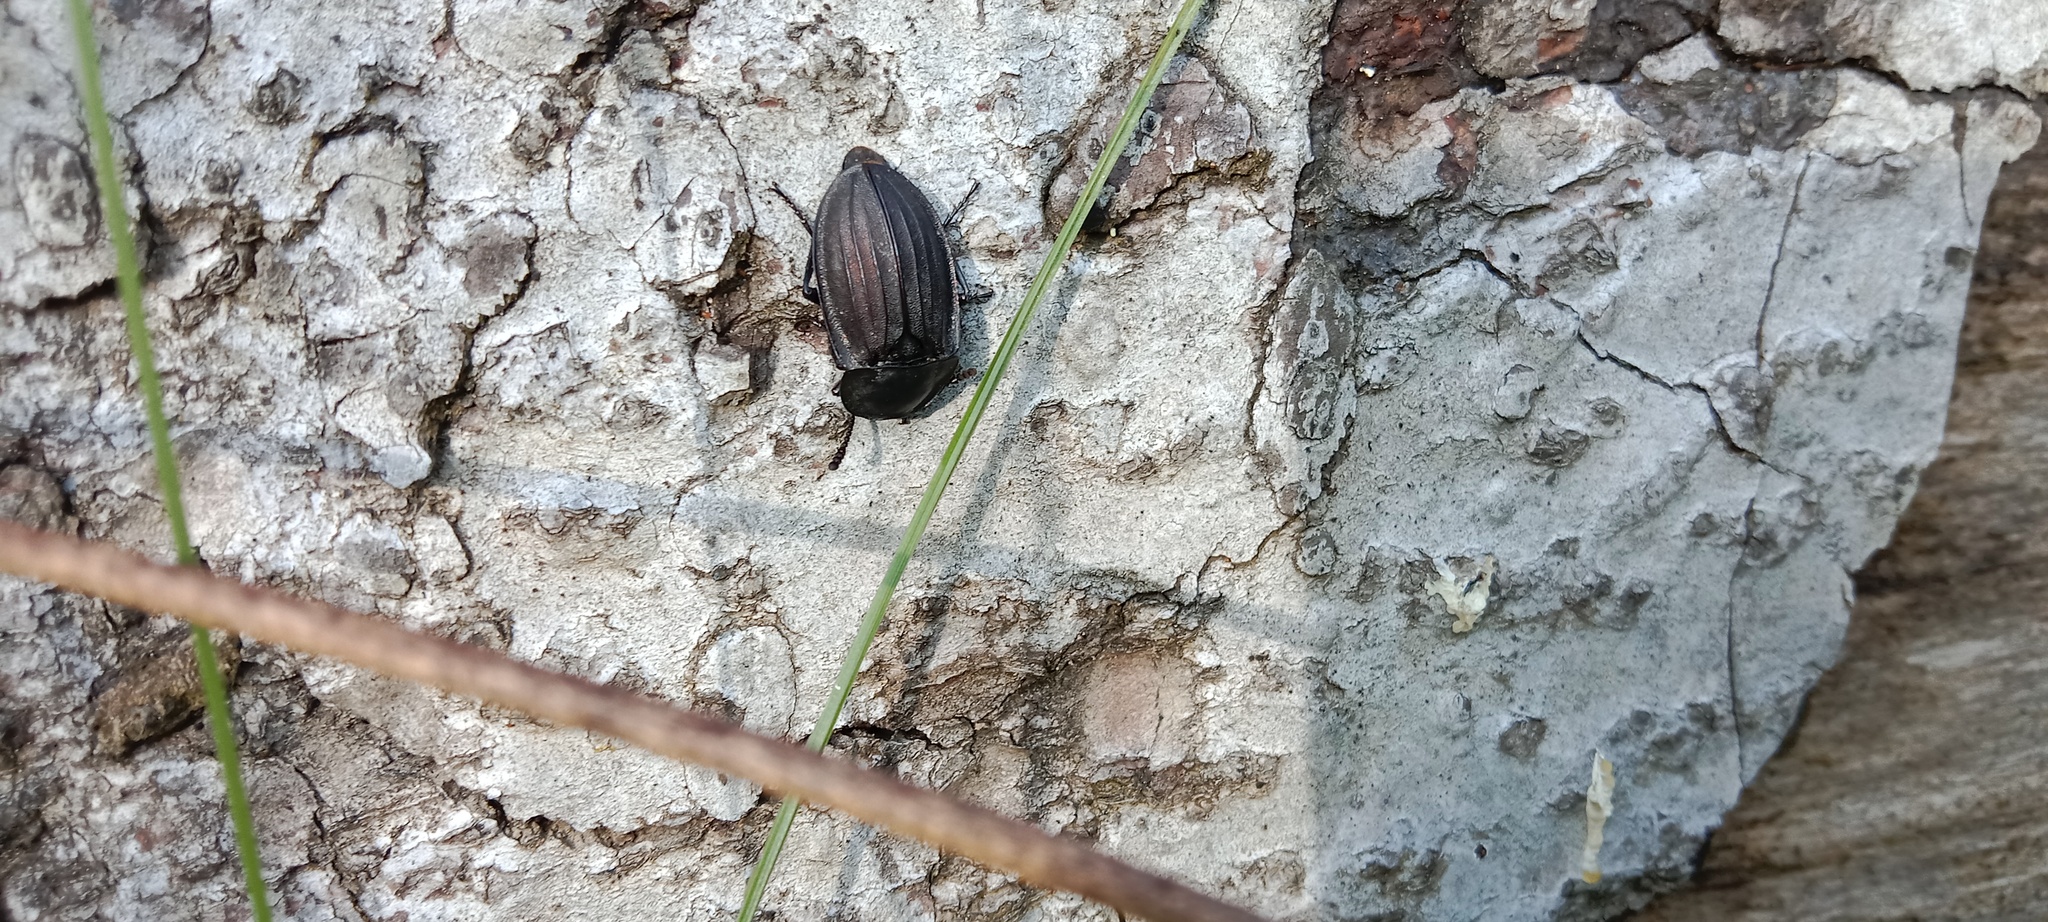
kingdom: Animalia
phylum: Arthropoda
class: Insecta
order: Coleoptera
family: Staphylinidae
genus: Silpha
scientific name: Silpha carinata
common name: Silphid beetle
